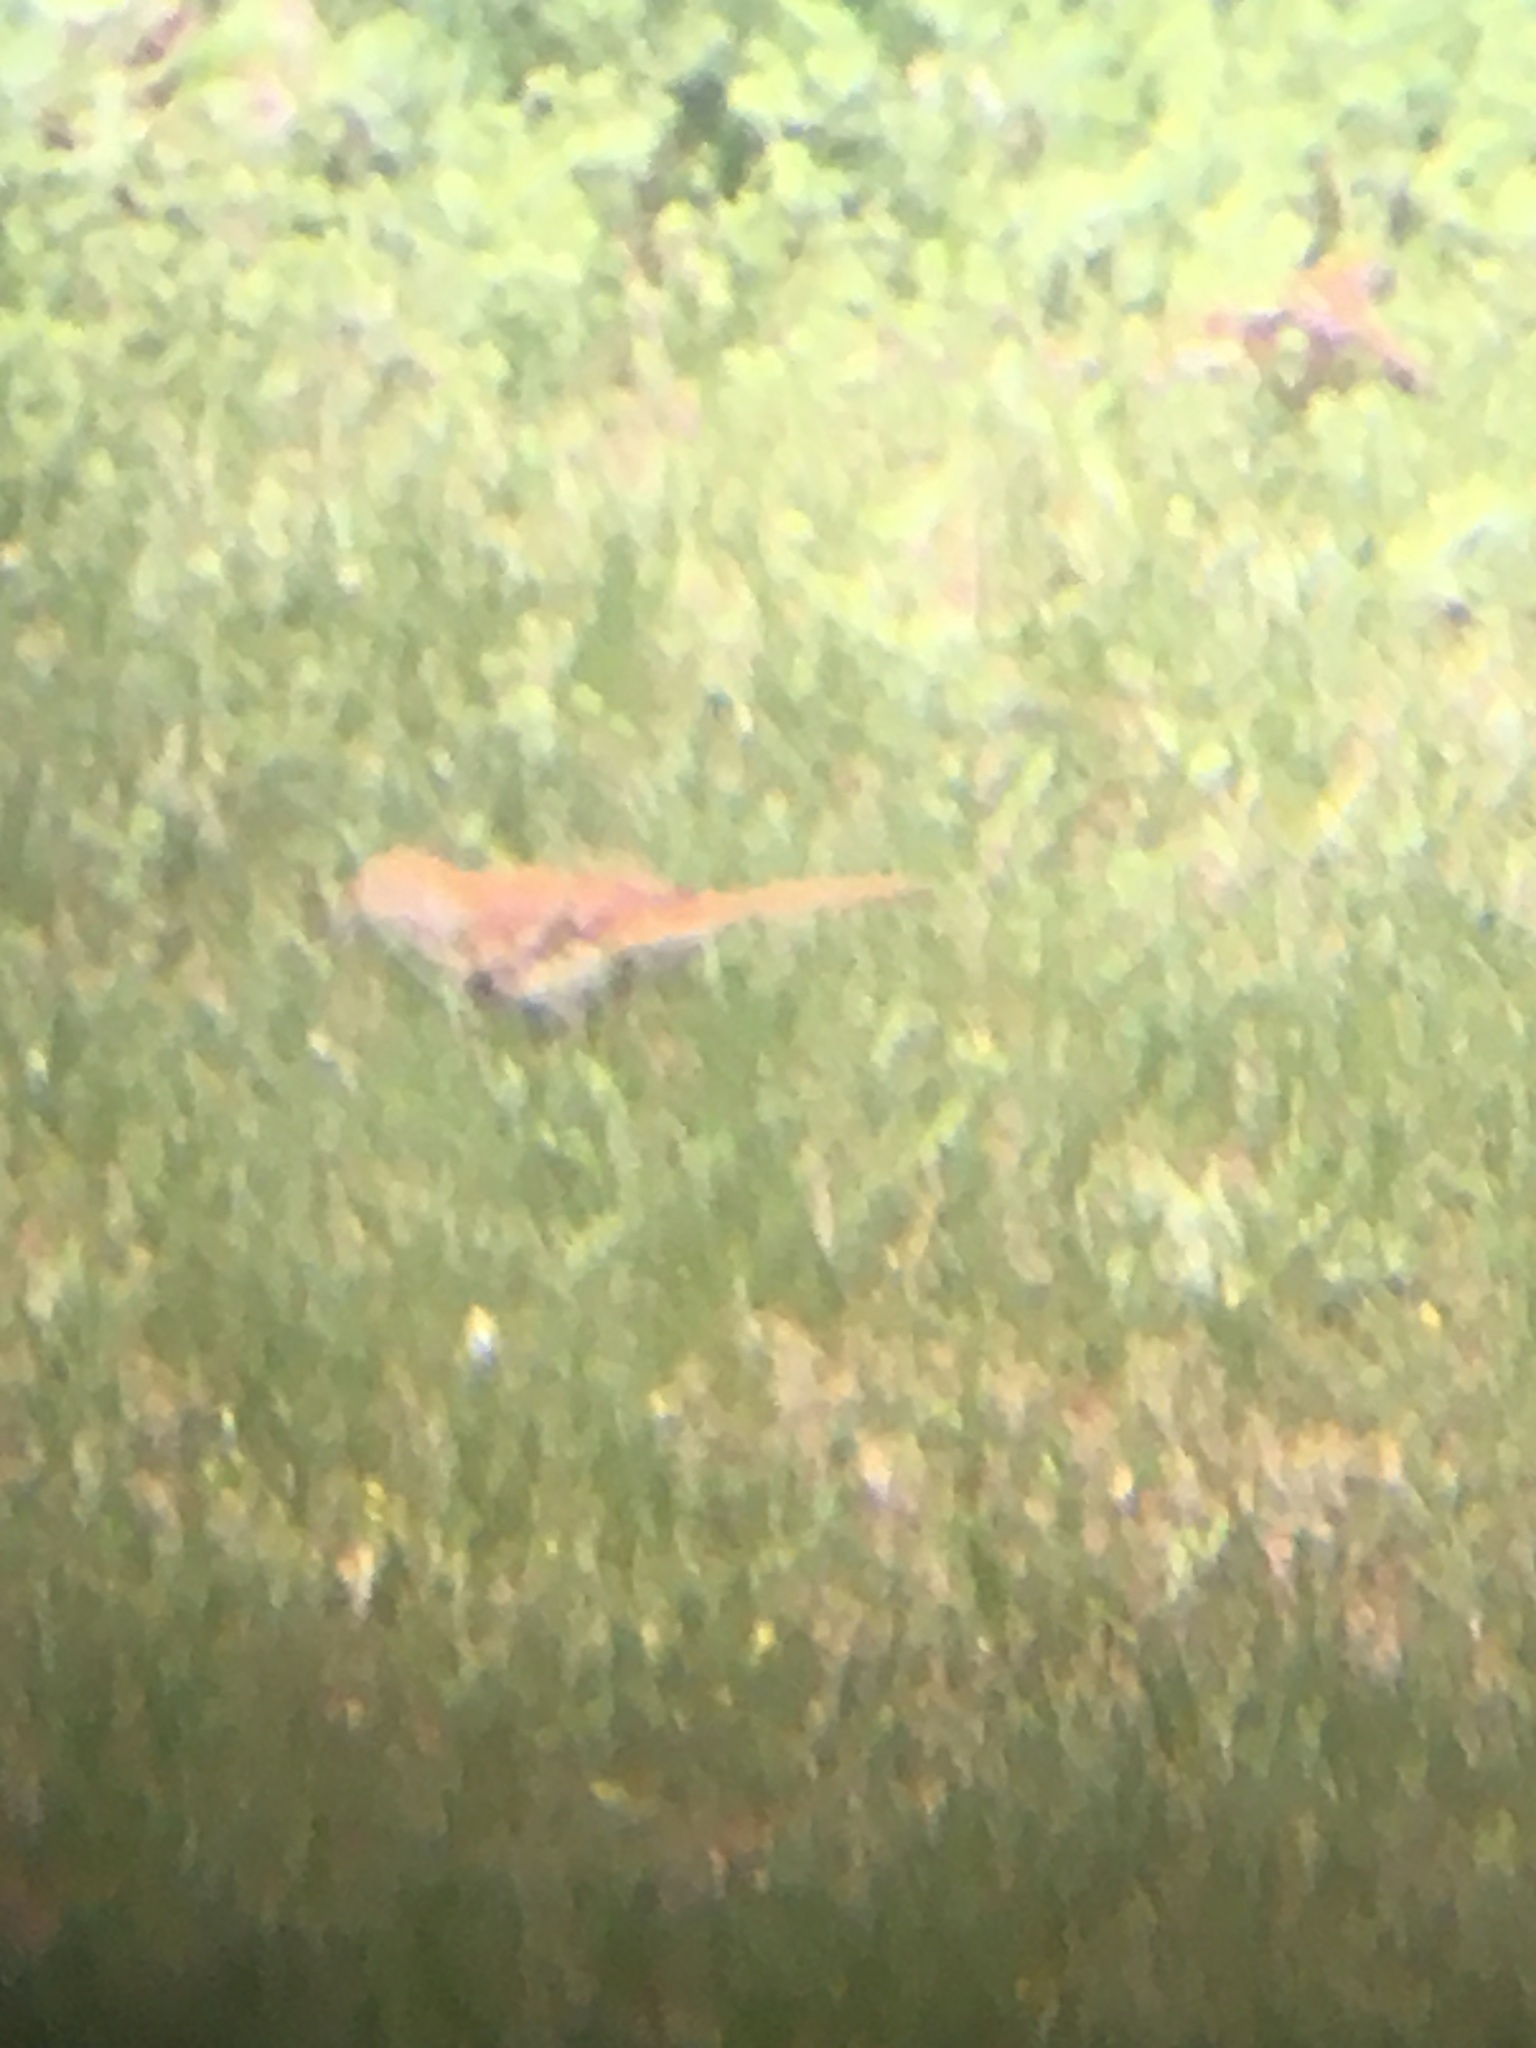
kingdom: Animalia
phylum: Chordata
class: Aves
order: Passeriformes
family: Mimidae
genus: Toxostoma
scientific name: Toxostoma rufum
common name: Brown thrasher
